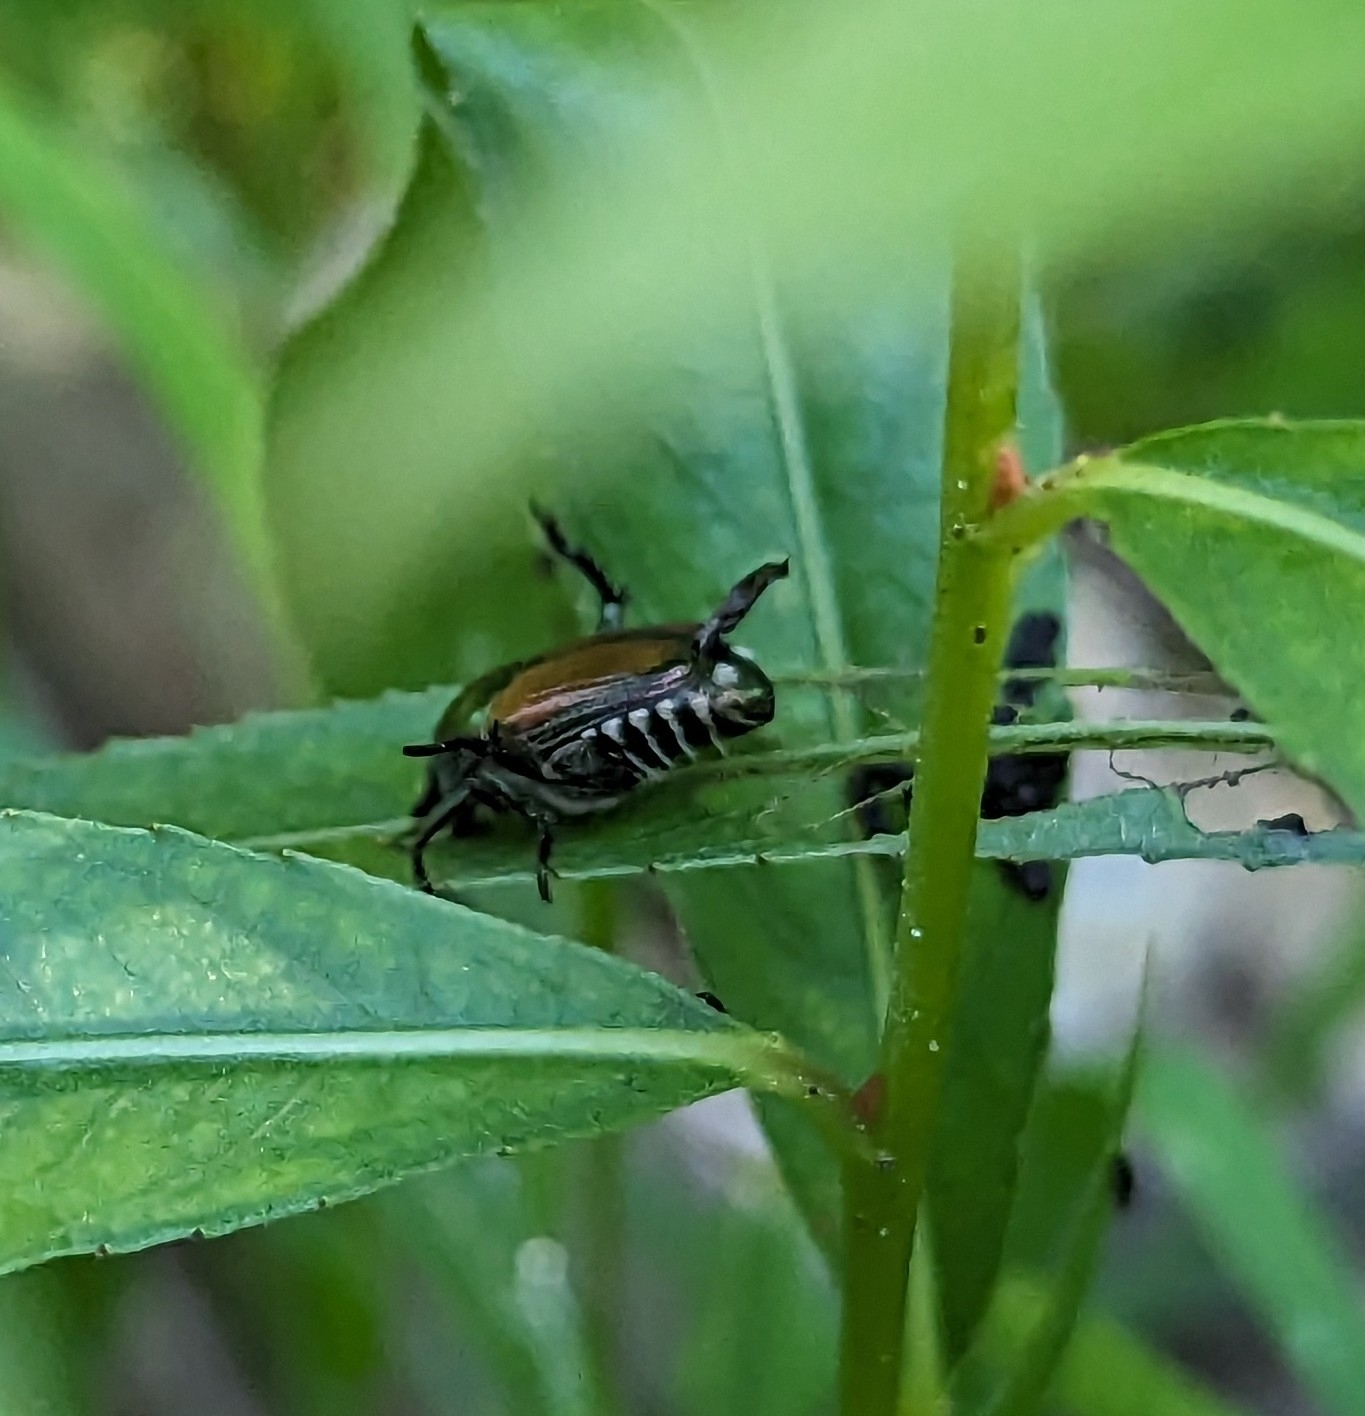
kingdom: Animalia
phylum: Arthropoda
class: Insecta
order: Coleoptera
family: Scarabaeidae
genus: Popillia
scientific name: Popillia japonica
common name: Japanese beetle
